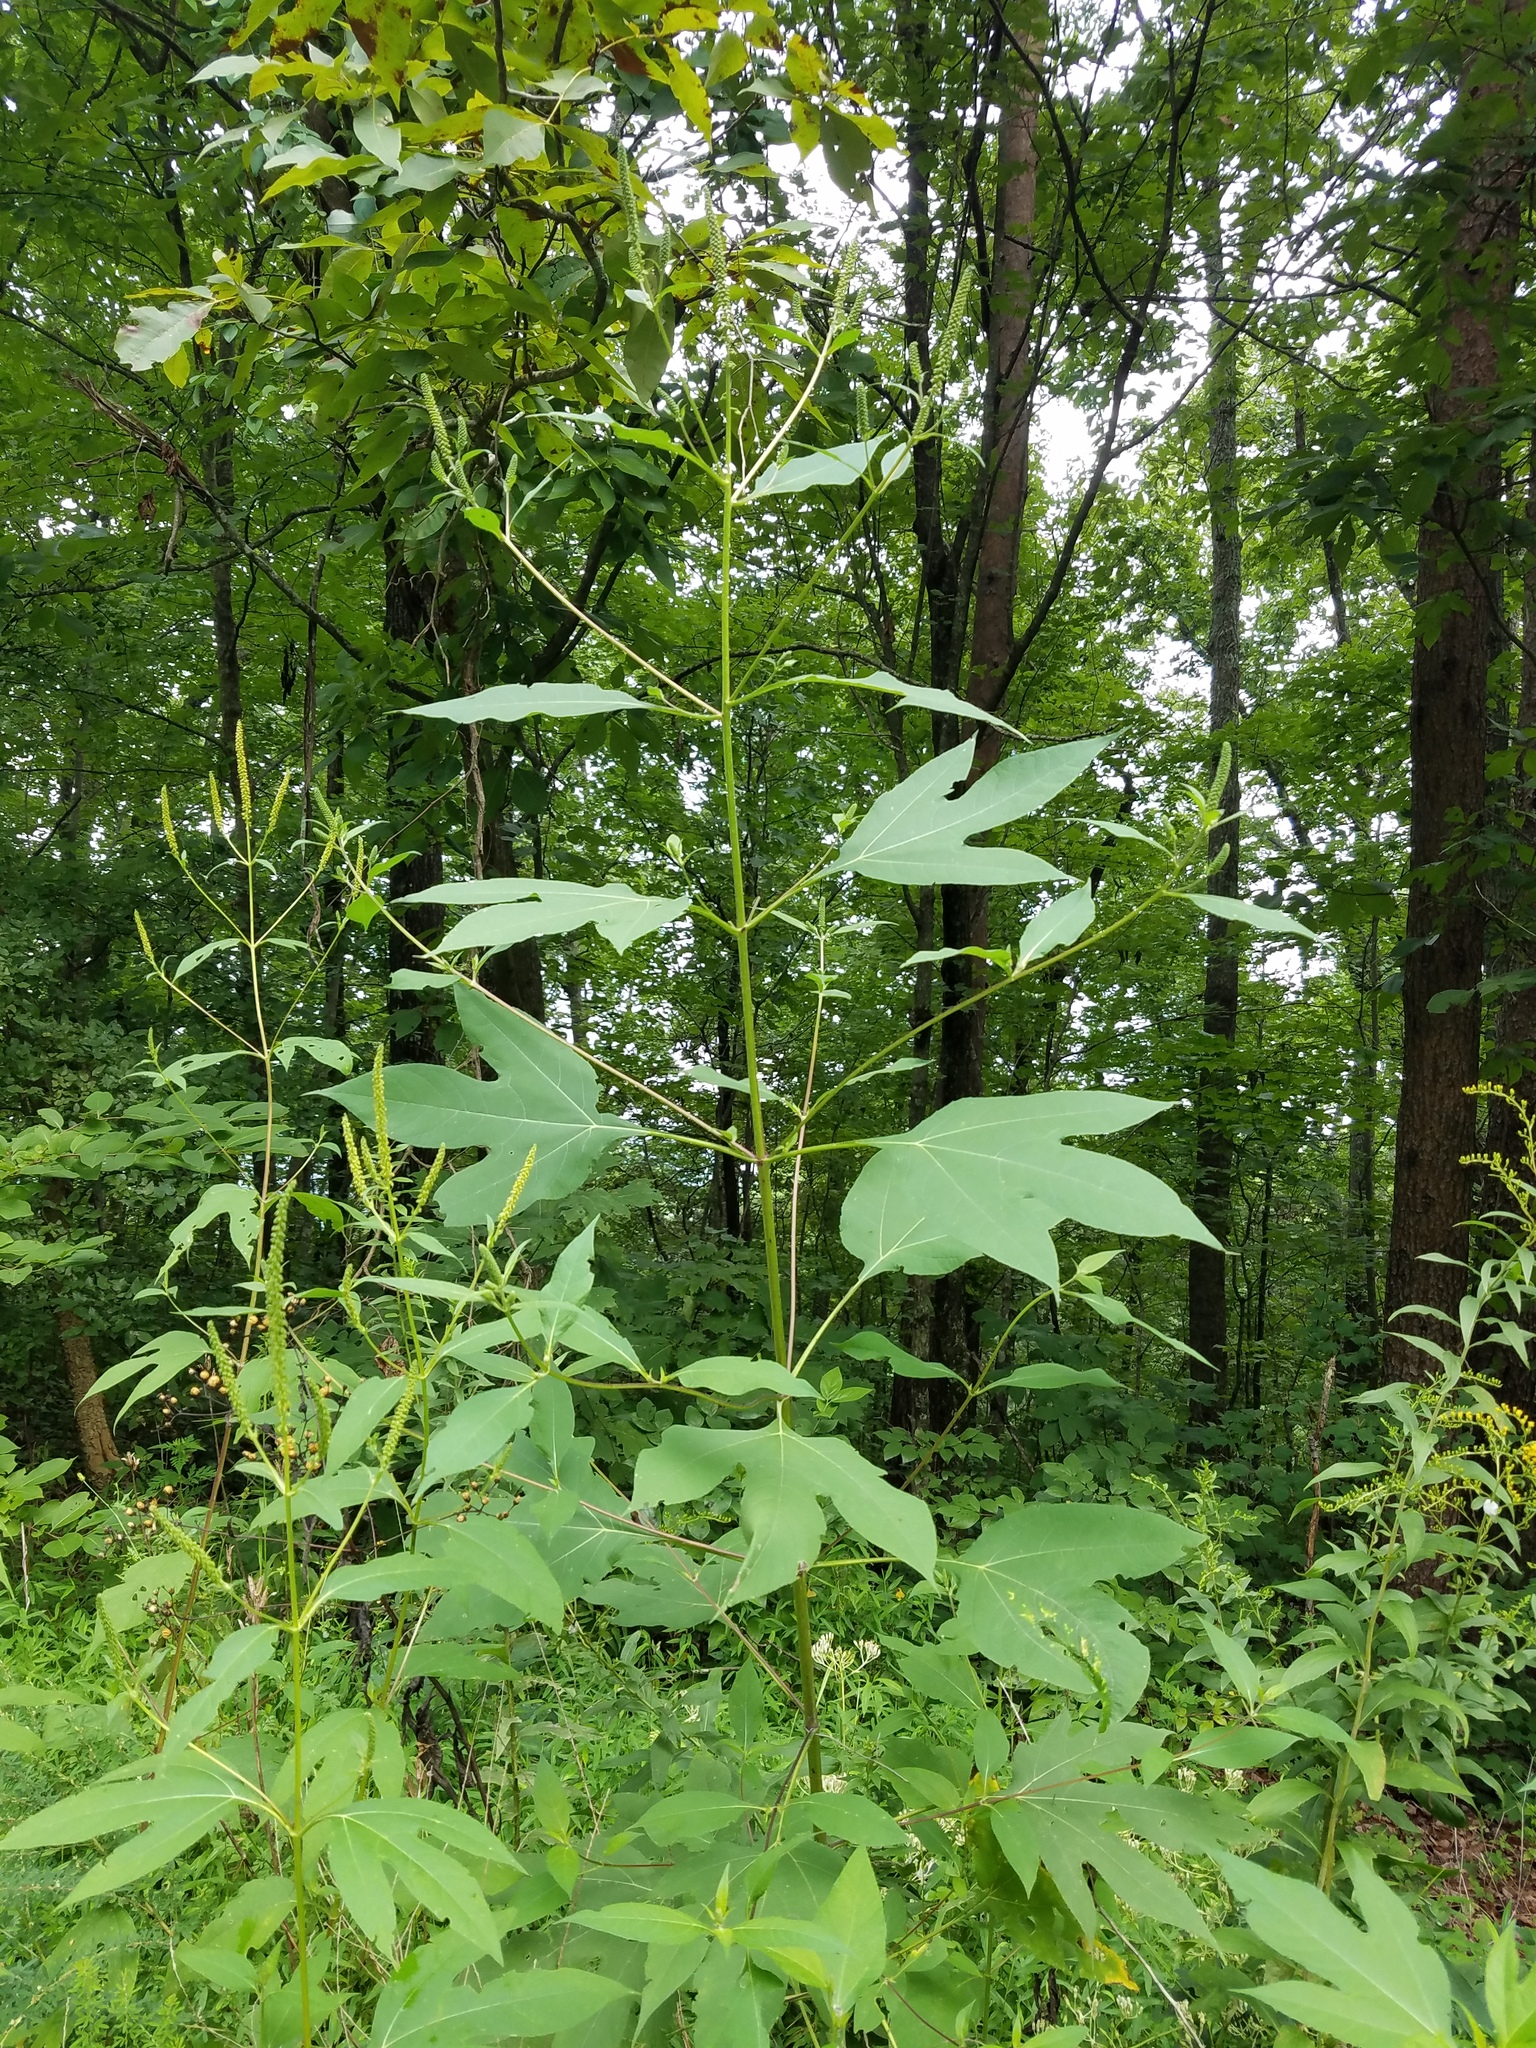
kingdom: Plantae
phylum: Tracheophyta
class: Magnoliopsida
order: Asterales
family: Asteraceae
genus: Ambrosia
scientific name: Ambrosia trifida
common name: Giant ragweed
